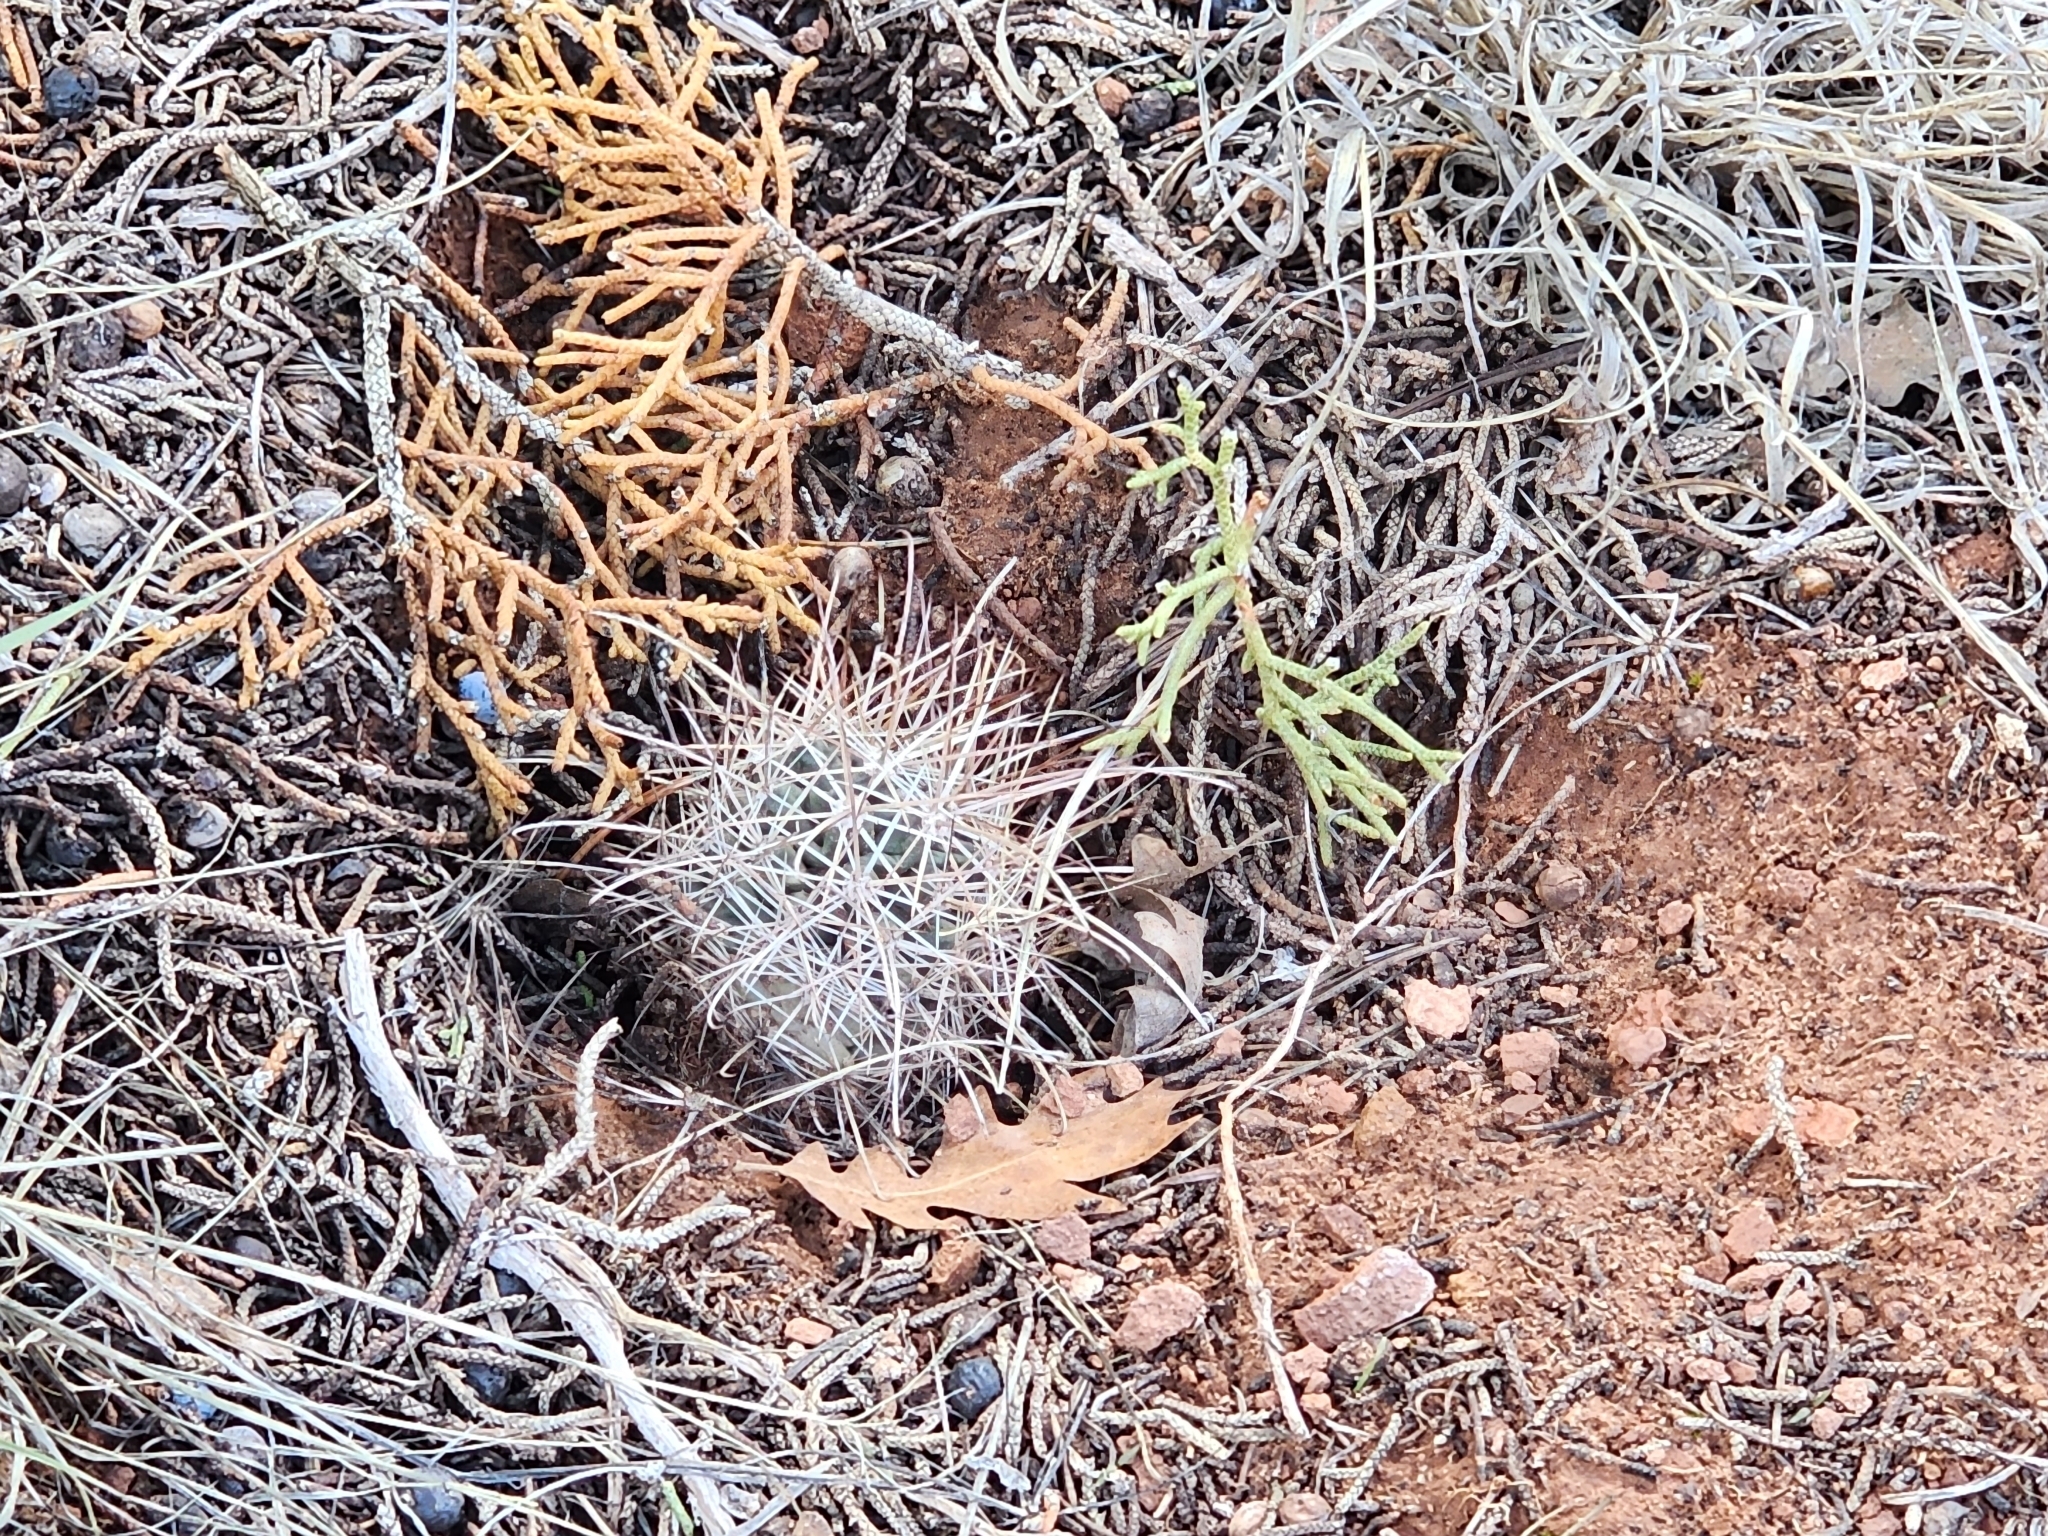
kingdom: Plantae
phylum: Tracheophyta
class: Magnoliopsida
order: Caryophyllales
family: Cactaceae
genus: Sclerocactus
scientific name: Sclerocactus parviflorus
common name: Small-flower fishhook cactus
